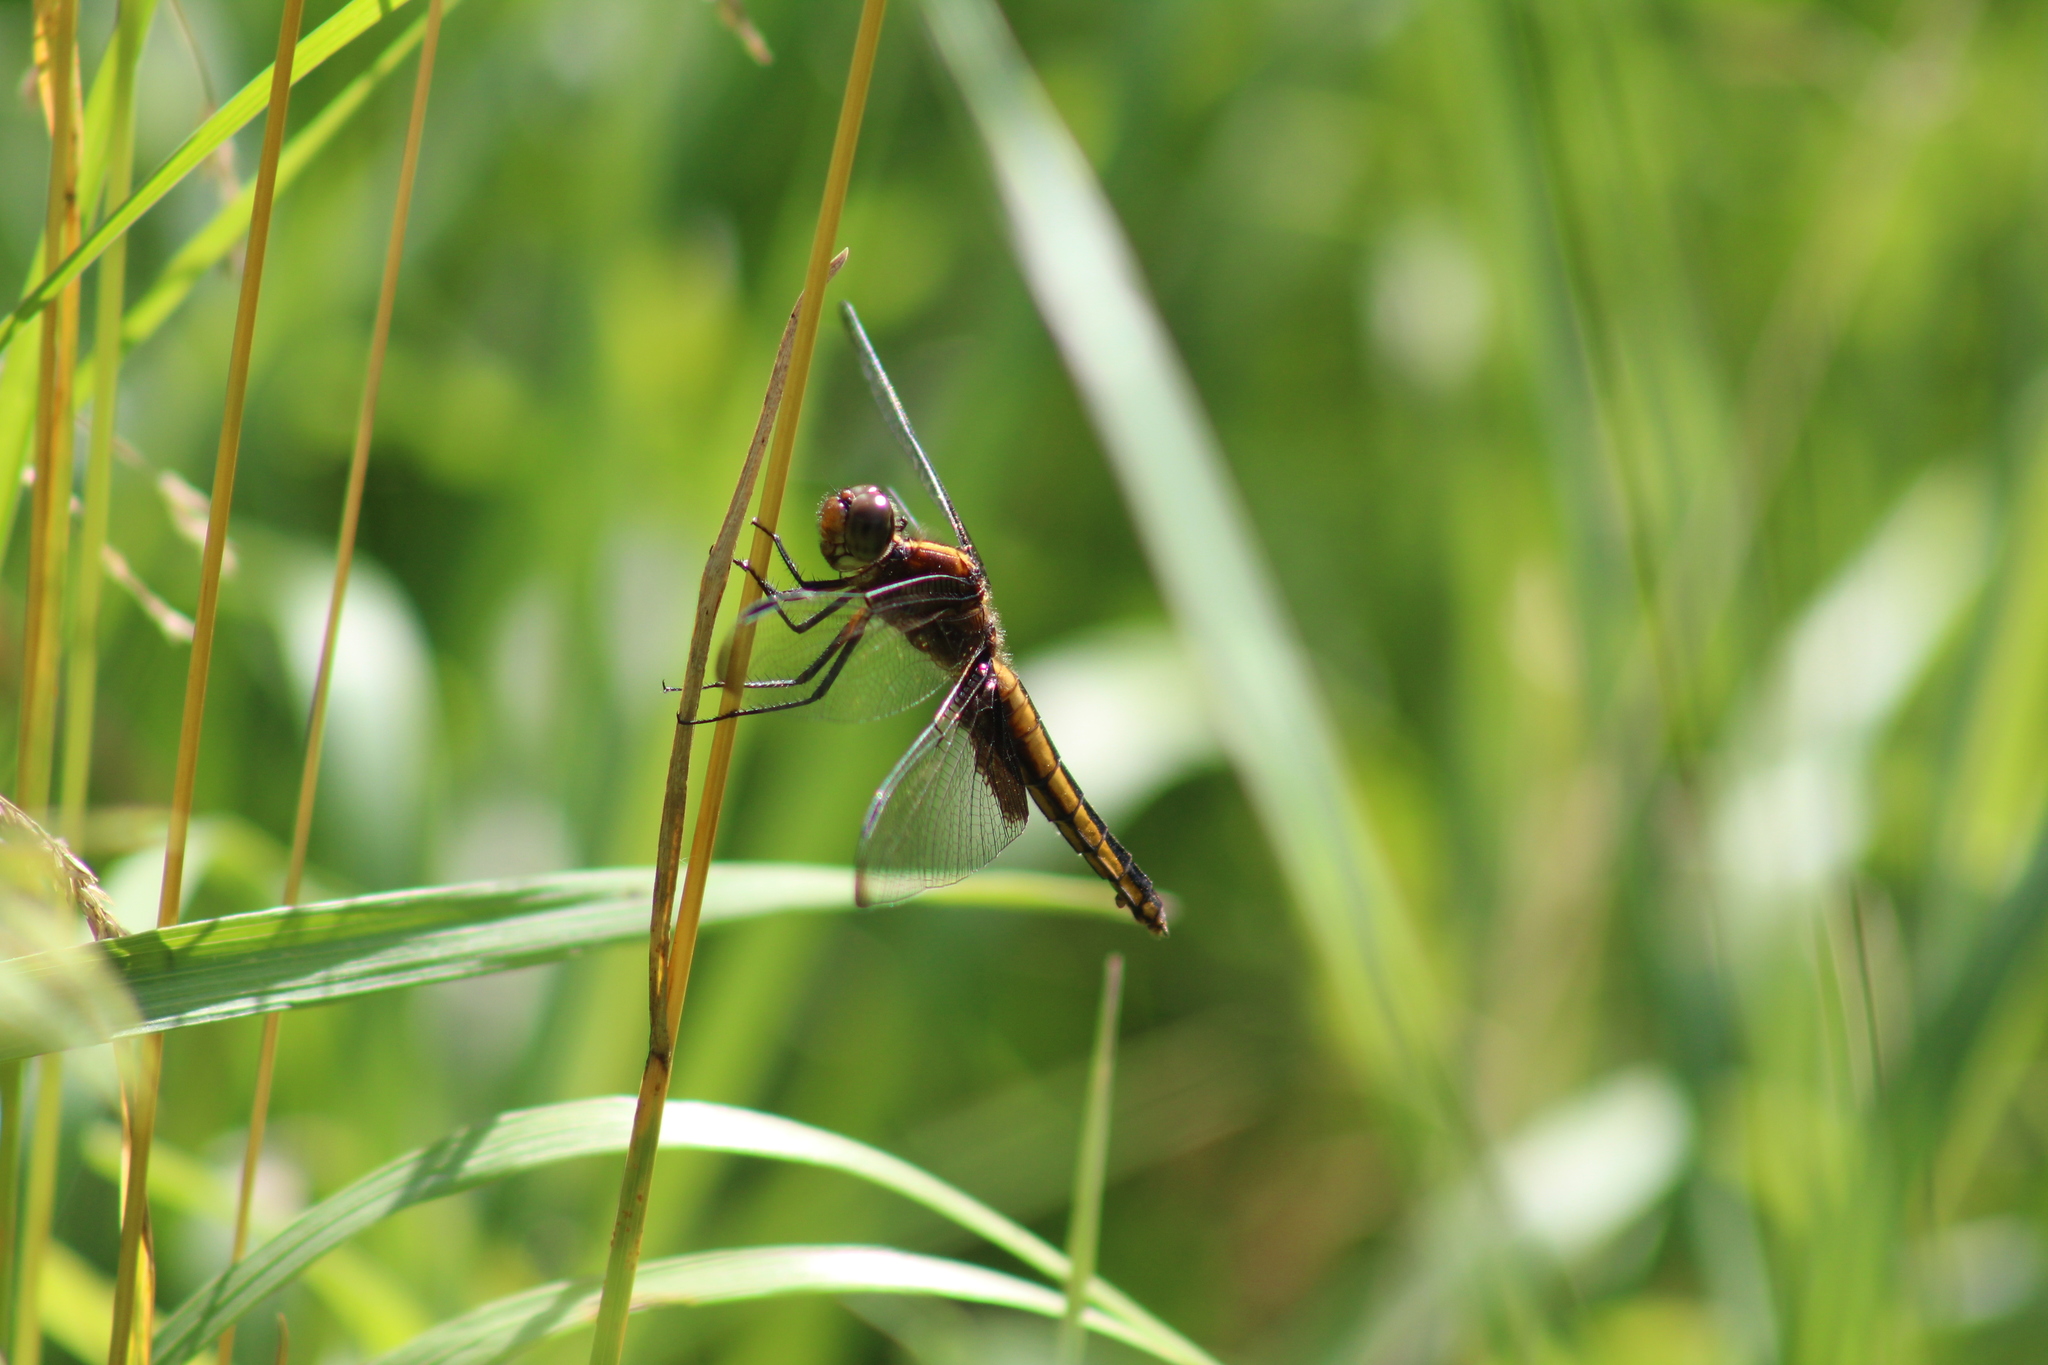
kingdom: Animalia
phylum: Arthropoda
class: Insecta
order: Odonata
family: Libellulidae
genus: Libellula
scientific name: Libellula luctuosa
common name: Widow skimmer
